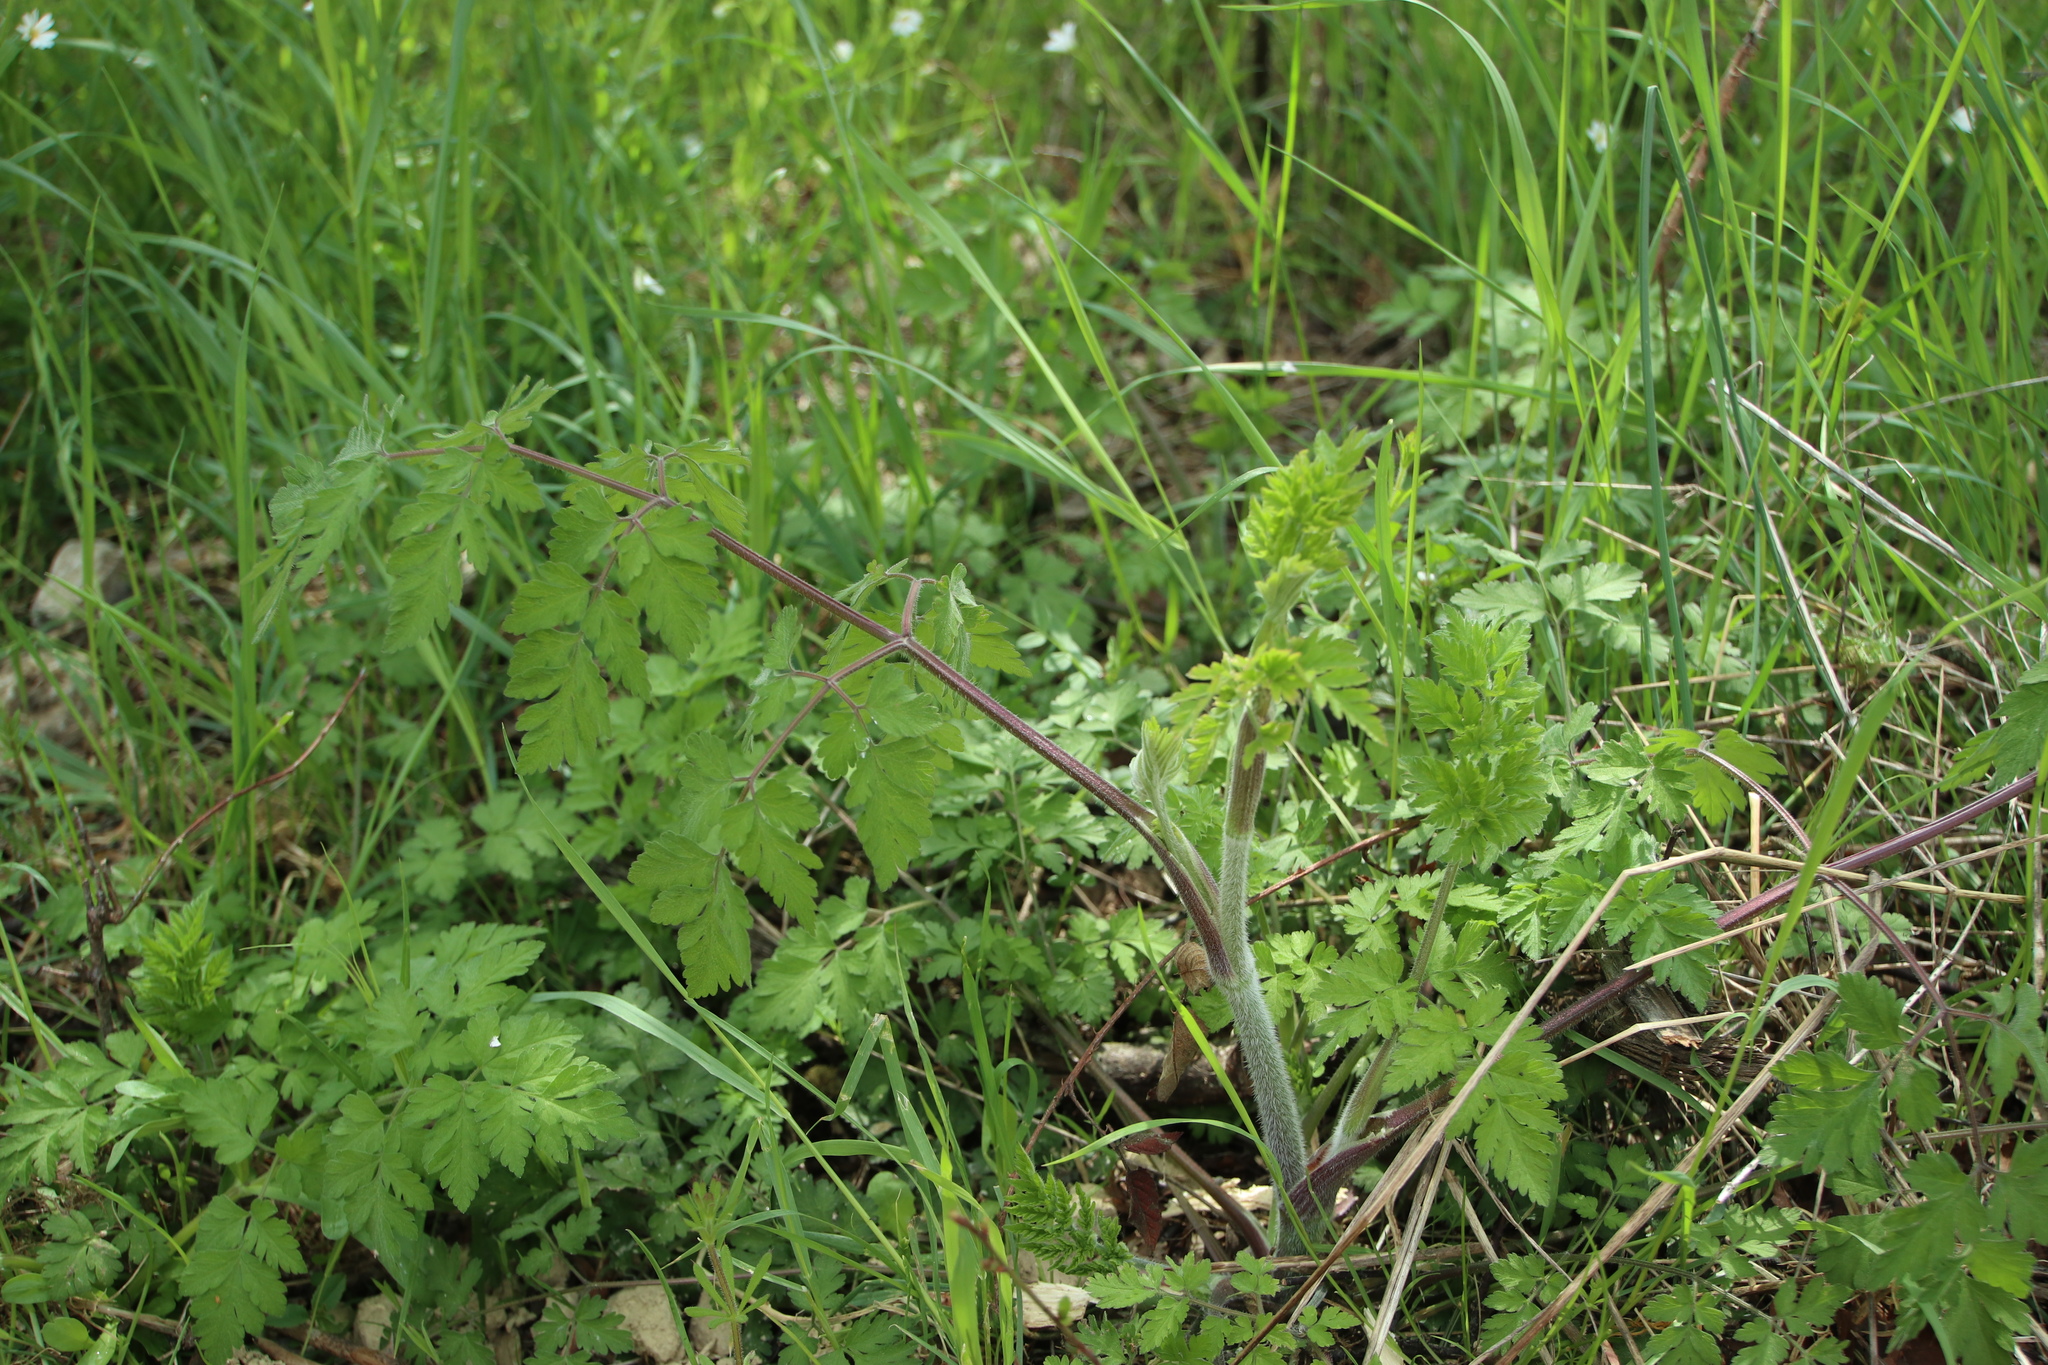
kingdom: Plantae
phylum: Tracheophyta
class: Magnoliopsida
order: Apiales
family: Apiaceae
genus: Anthriscus
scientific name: Anthriscus sylvestris
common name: Cow parsley
